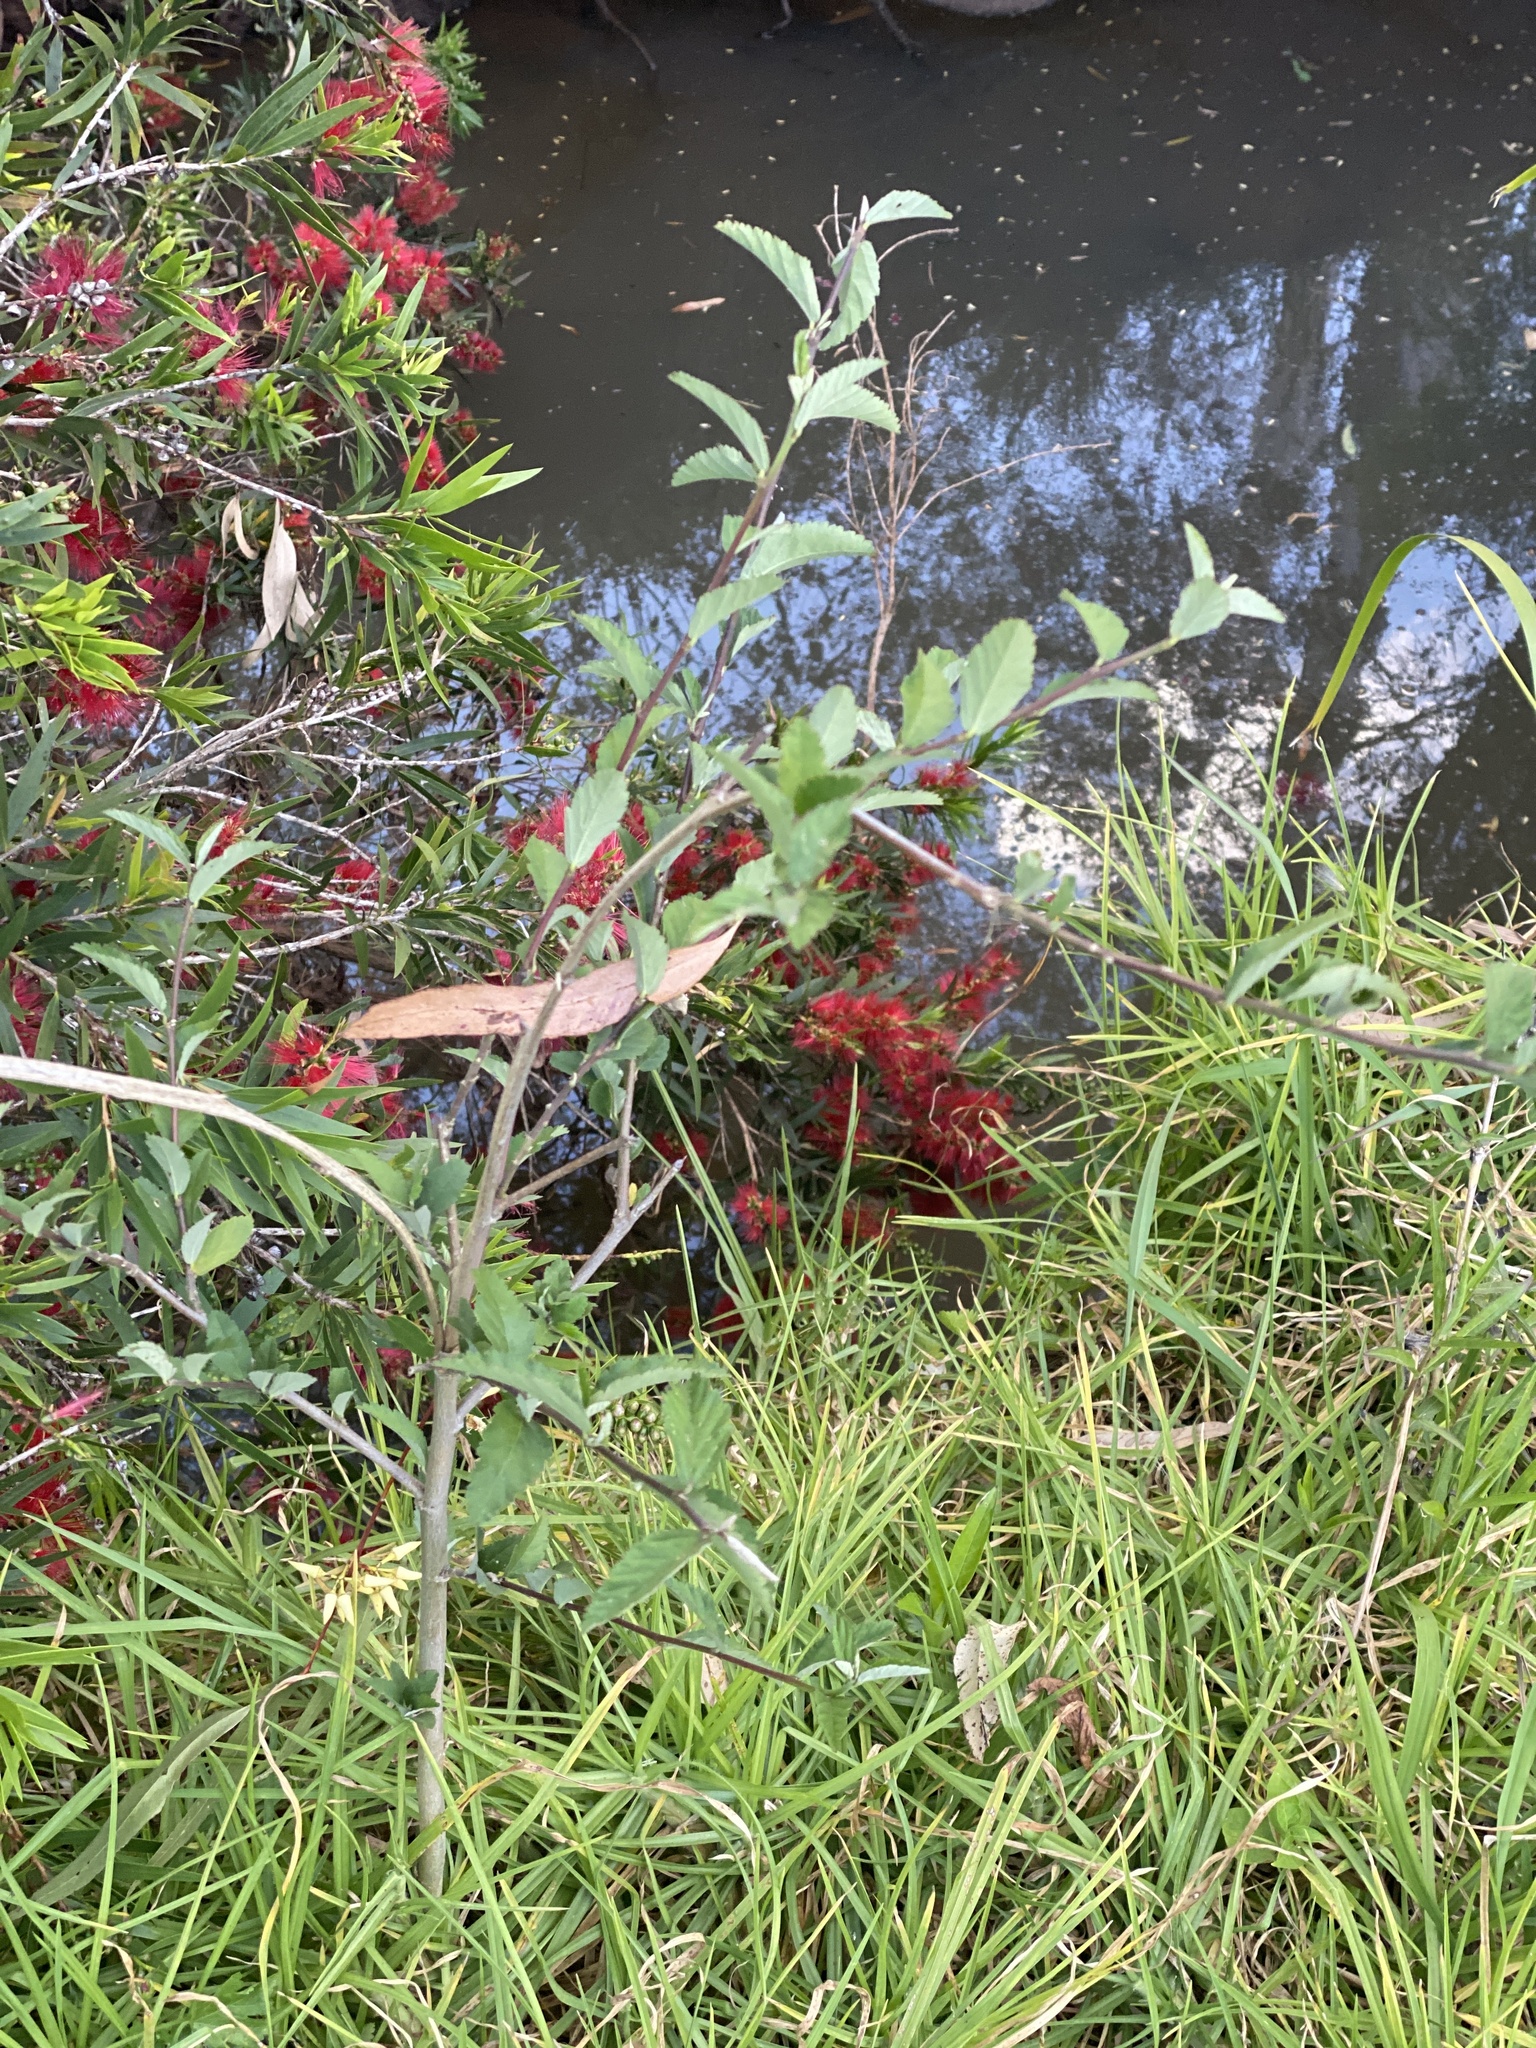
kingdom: Plantae
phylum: Tracheophyta
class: Magnoliopsida
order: Malvales
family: Malvaceae
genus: Sida
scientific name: Sida rhombifolia
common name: Queensland-hemp
